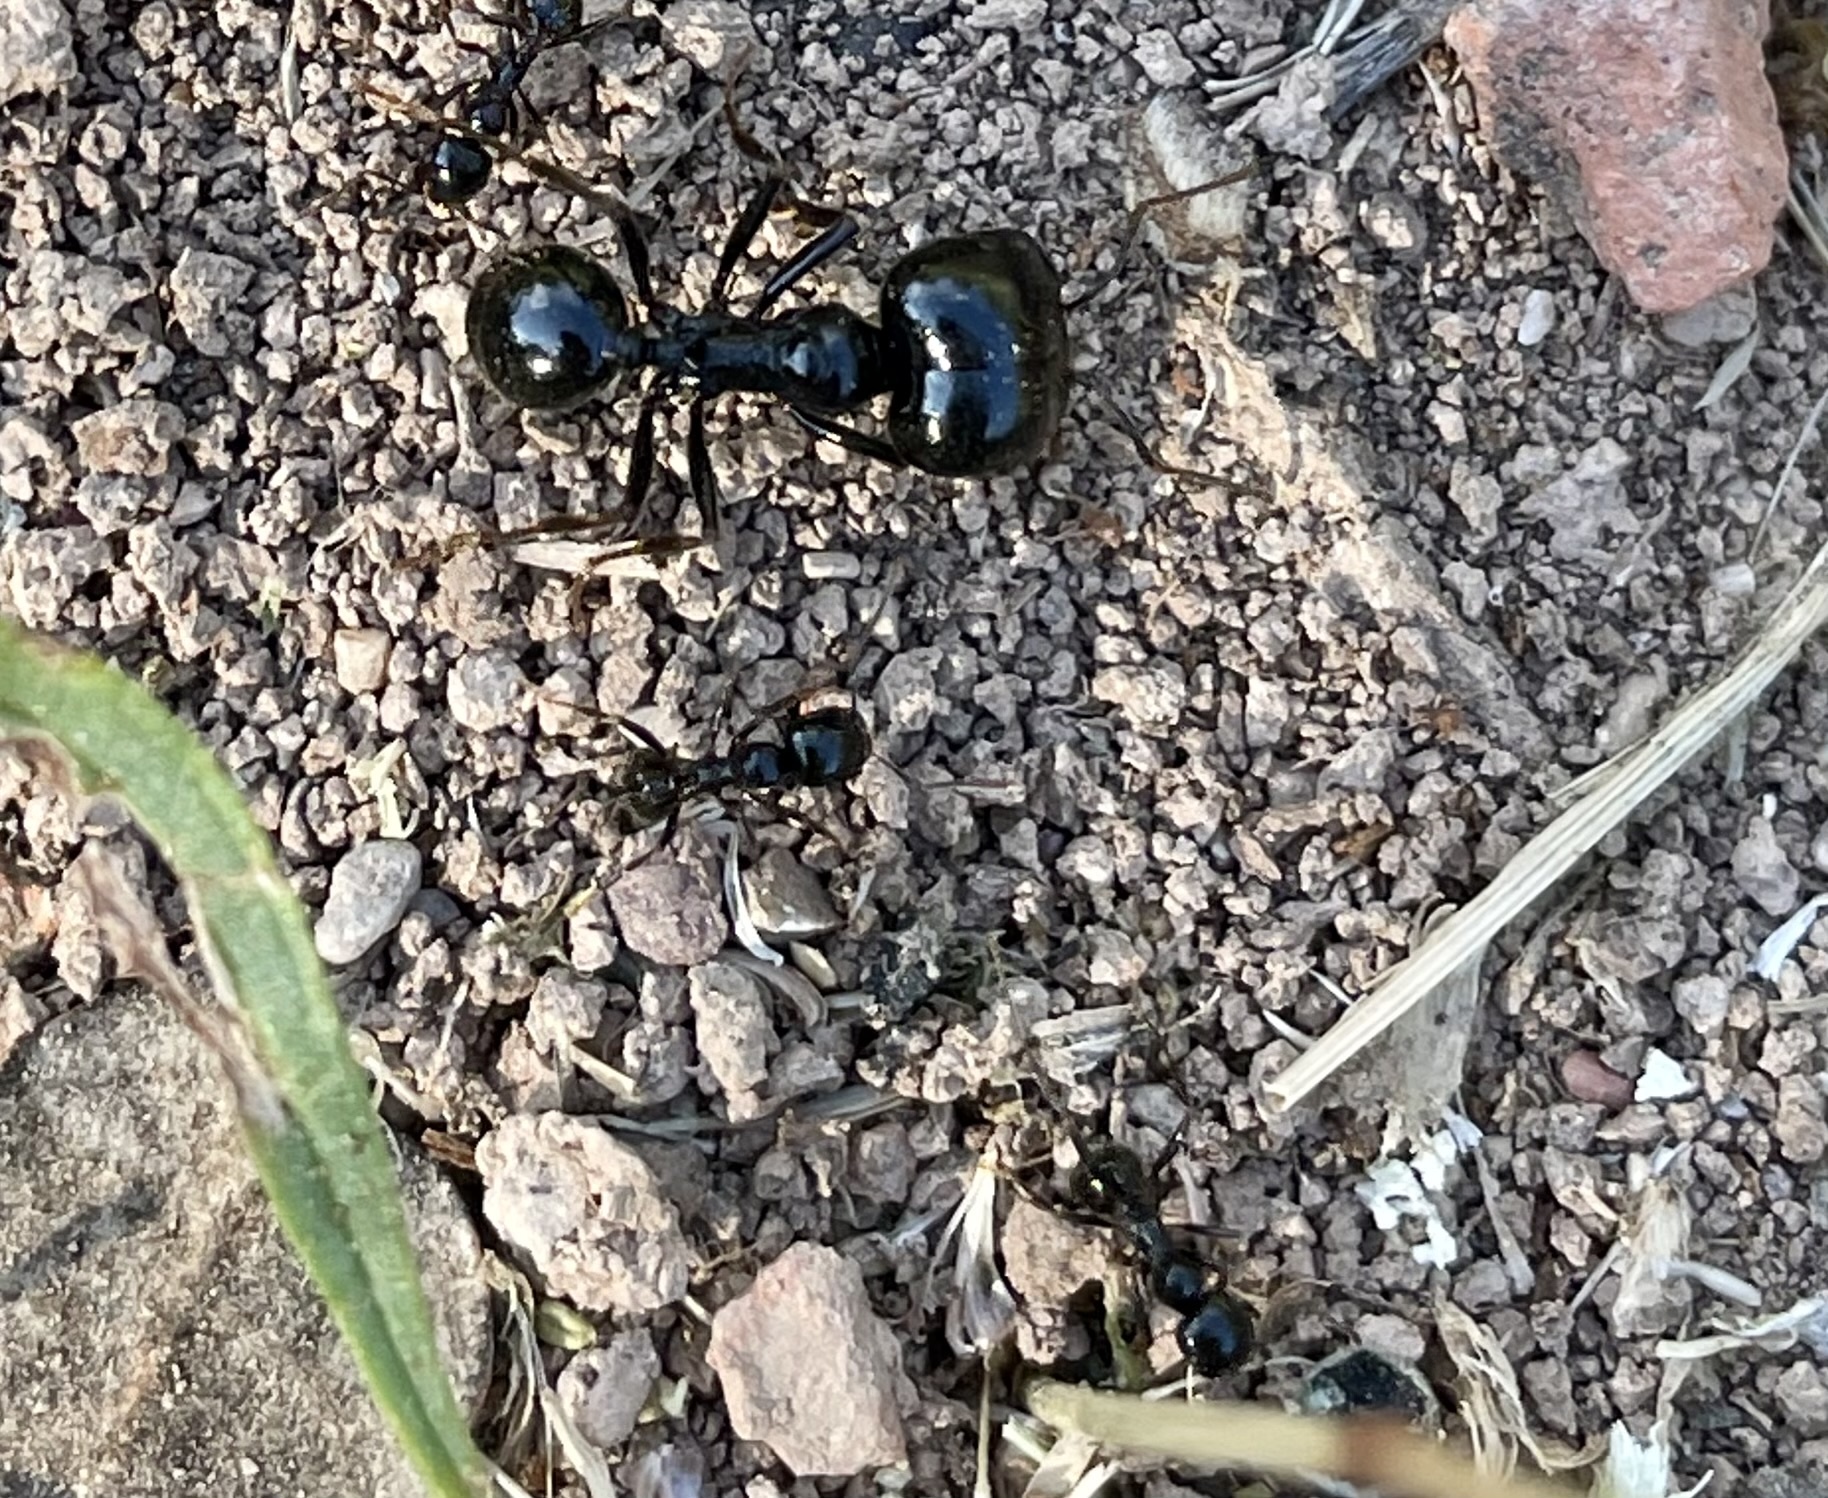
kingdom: Animalia
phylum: Arthropoda
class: Insecta
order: Hymenoptera
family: Formicidae
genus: Messor
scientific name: Messor capitatus
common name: European seed harvesting ant
